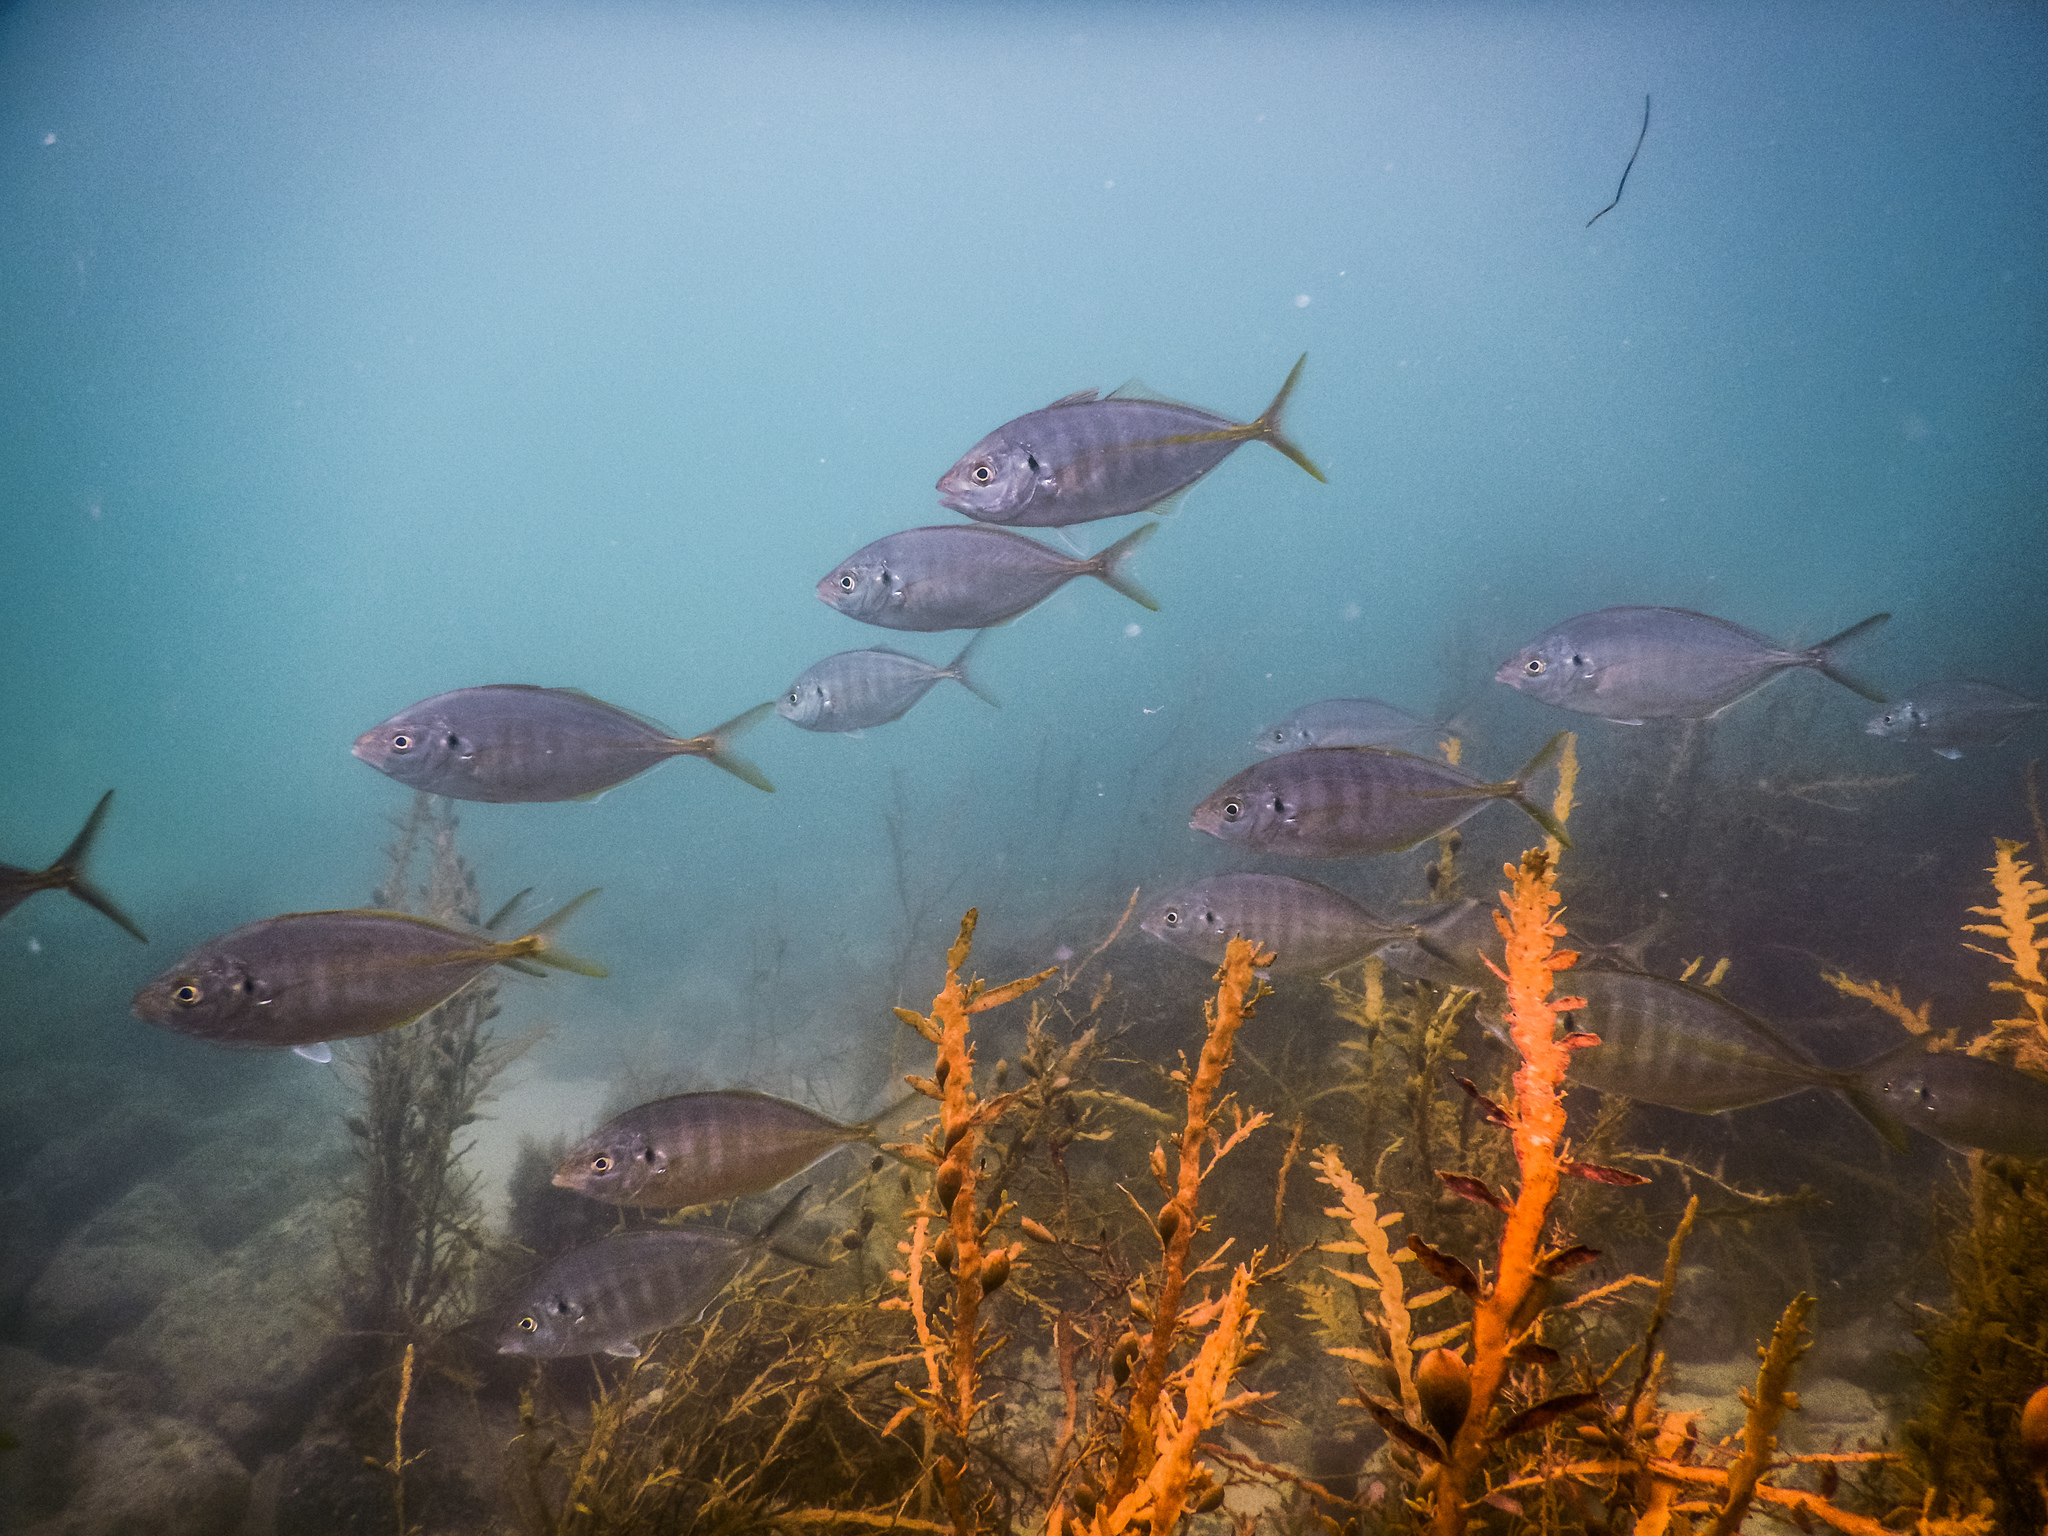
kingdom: Animalia
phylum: Chordata
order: Perciformes
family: Carangidae
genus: Pseudocaranx
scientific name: Pseudocaranx dentex
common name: White trevally
